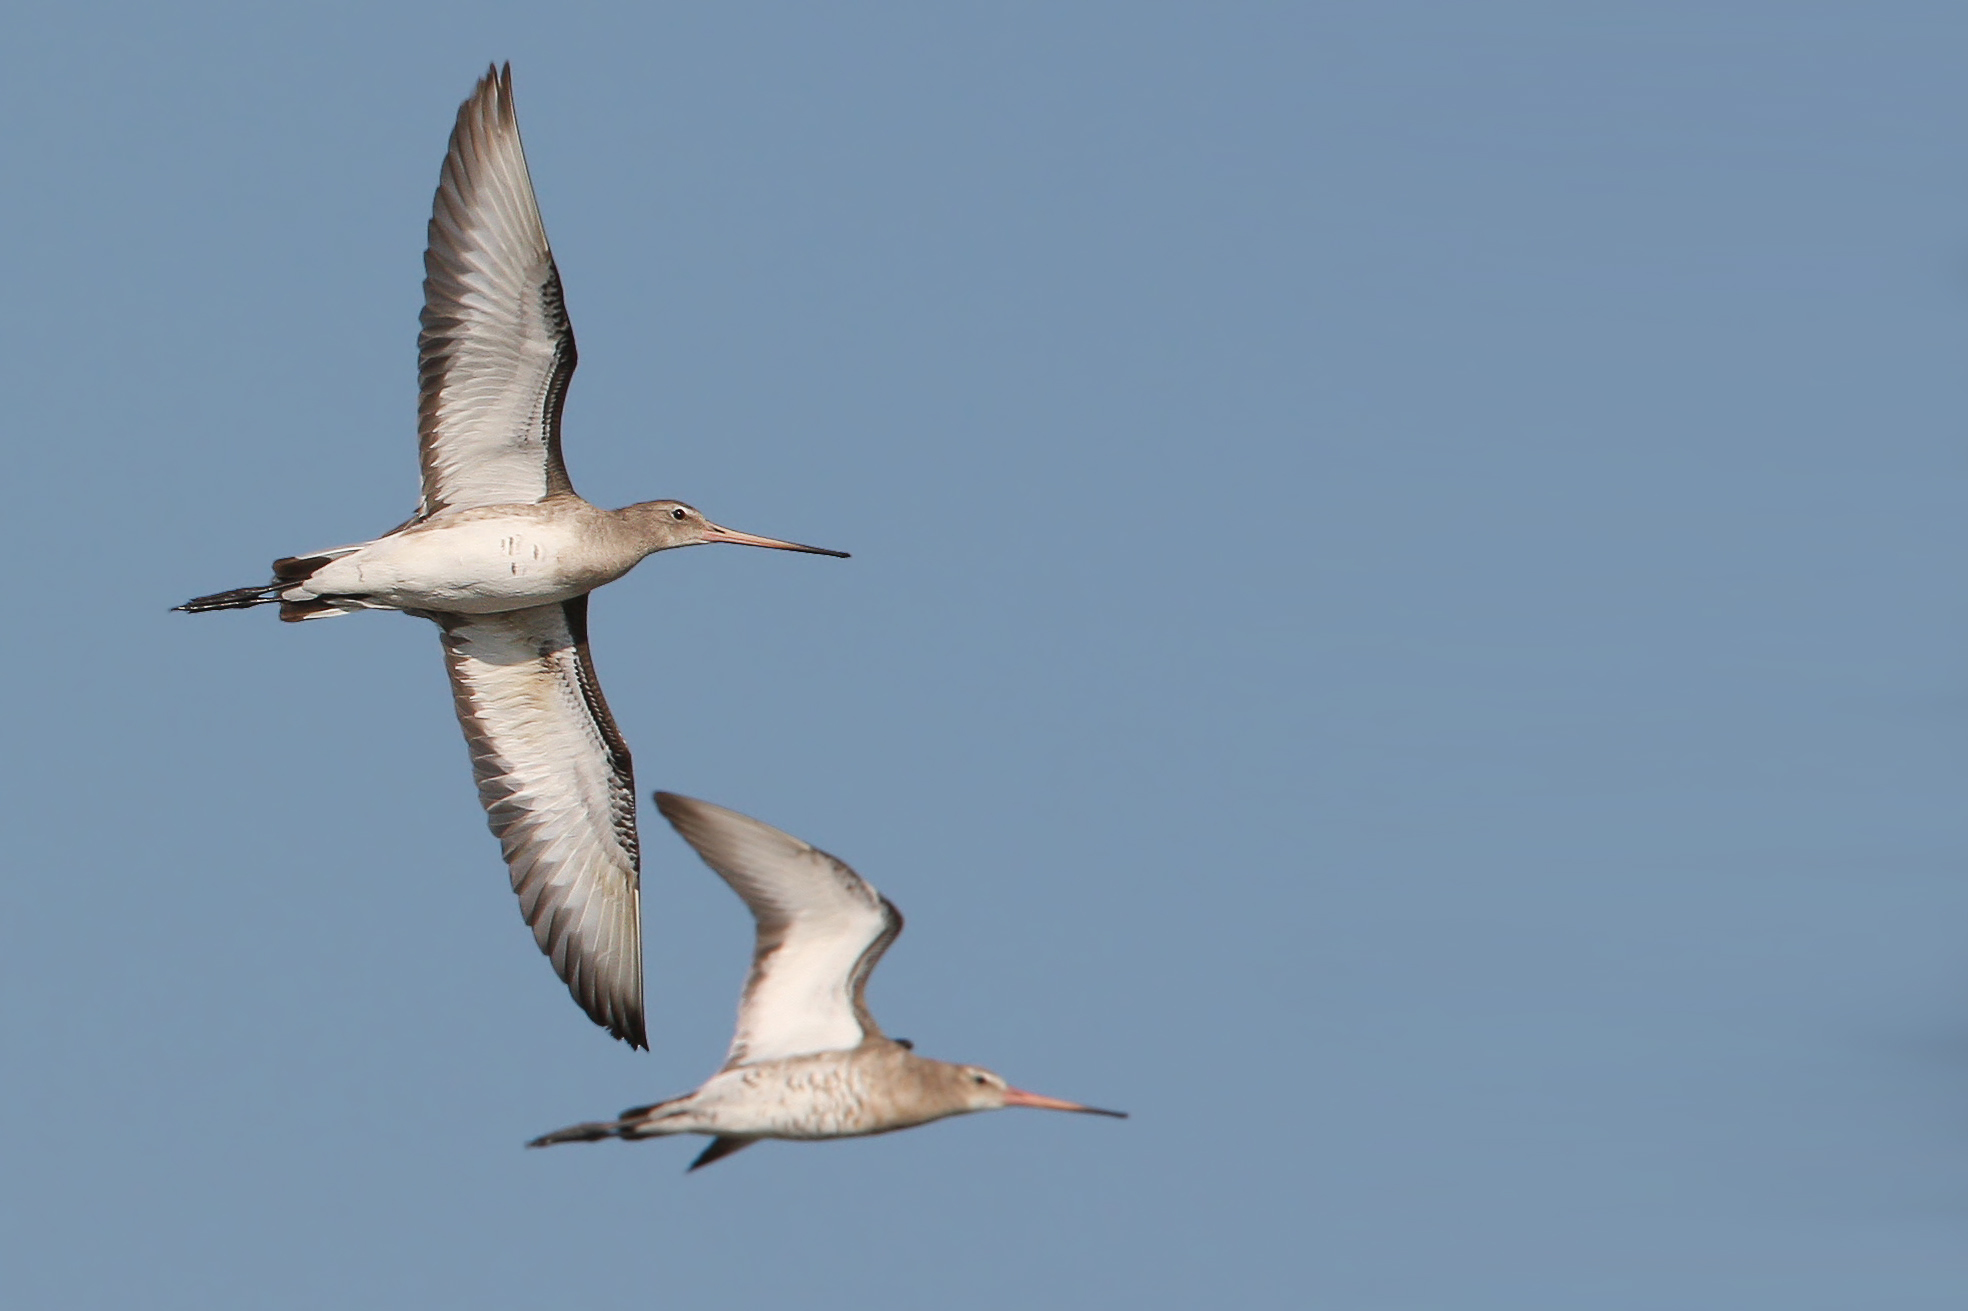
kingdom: Animalia
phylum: Chordata
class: Aves
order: Charadriiformes
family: Scolopacidae
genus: Limosa
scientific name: Limosa limosa
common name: Black-tailed godwit
